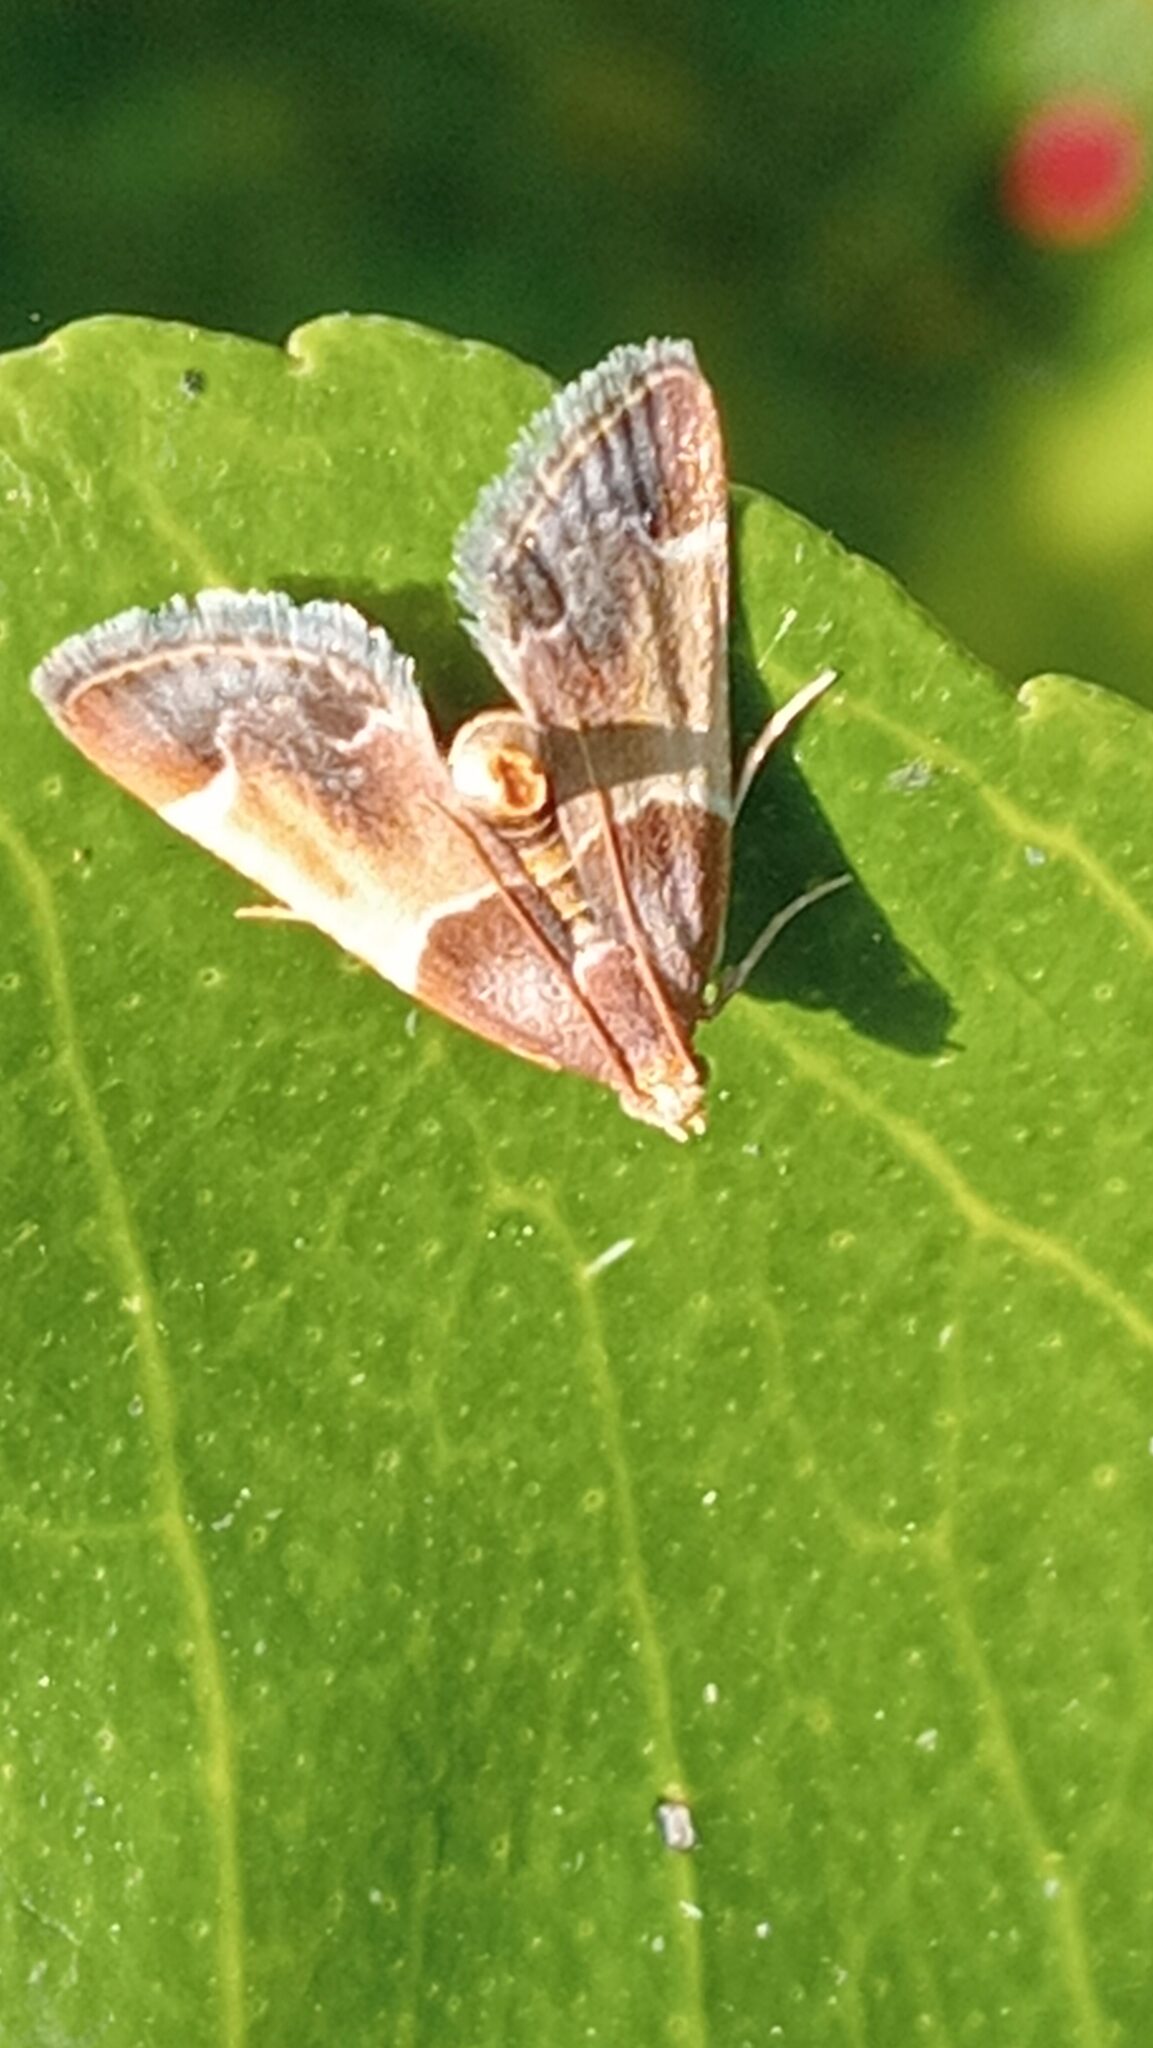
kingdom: Animalia
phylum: Arthropoda
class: Insecta
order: Lepidoptera
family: Pyralidae
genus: Pyralis
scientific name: Pyralis farinalis
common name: Meal moth
